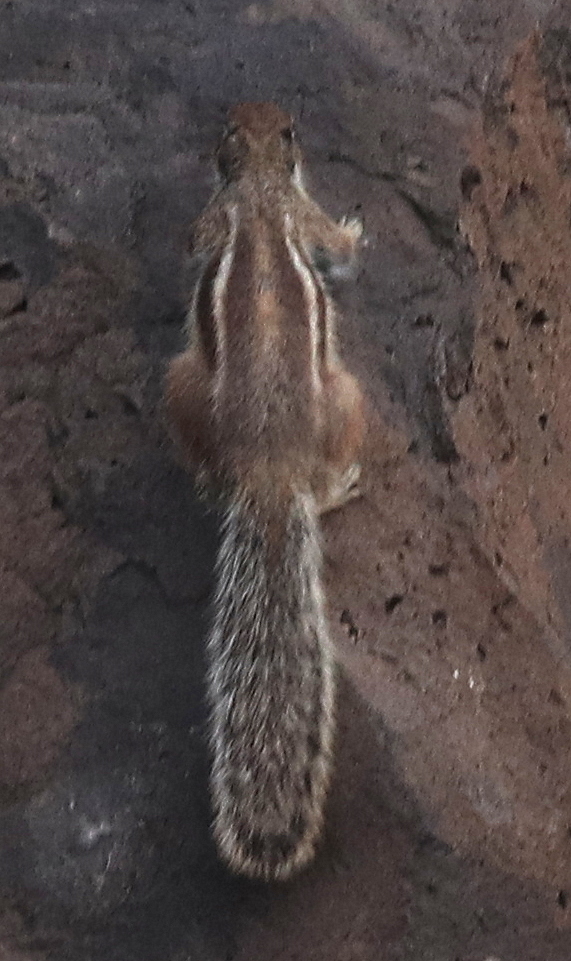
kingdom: Animalia
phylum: Chordata
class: Mammalia
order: Rodentia
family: Sciuridae
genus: Atlantoxerus
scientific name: Atlantoxerus getulus
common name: Barbary ground squirrel
